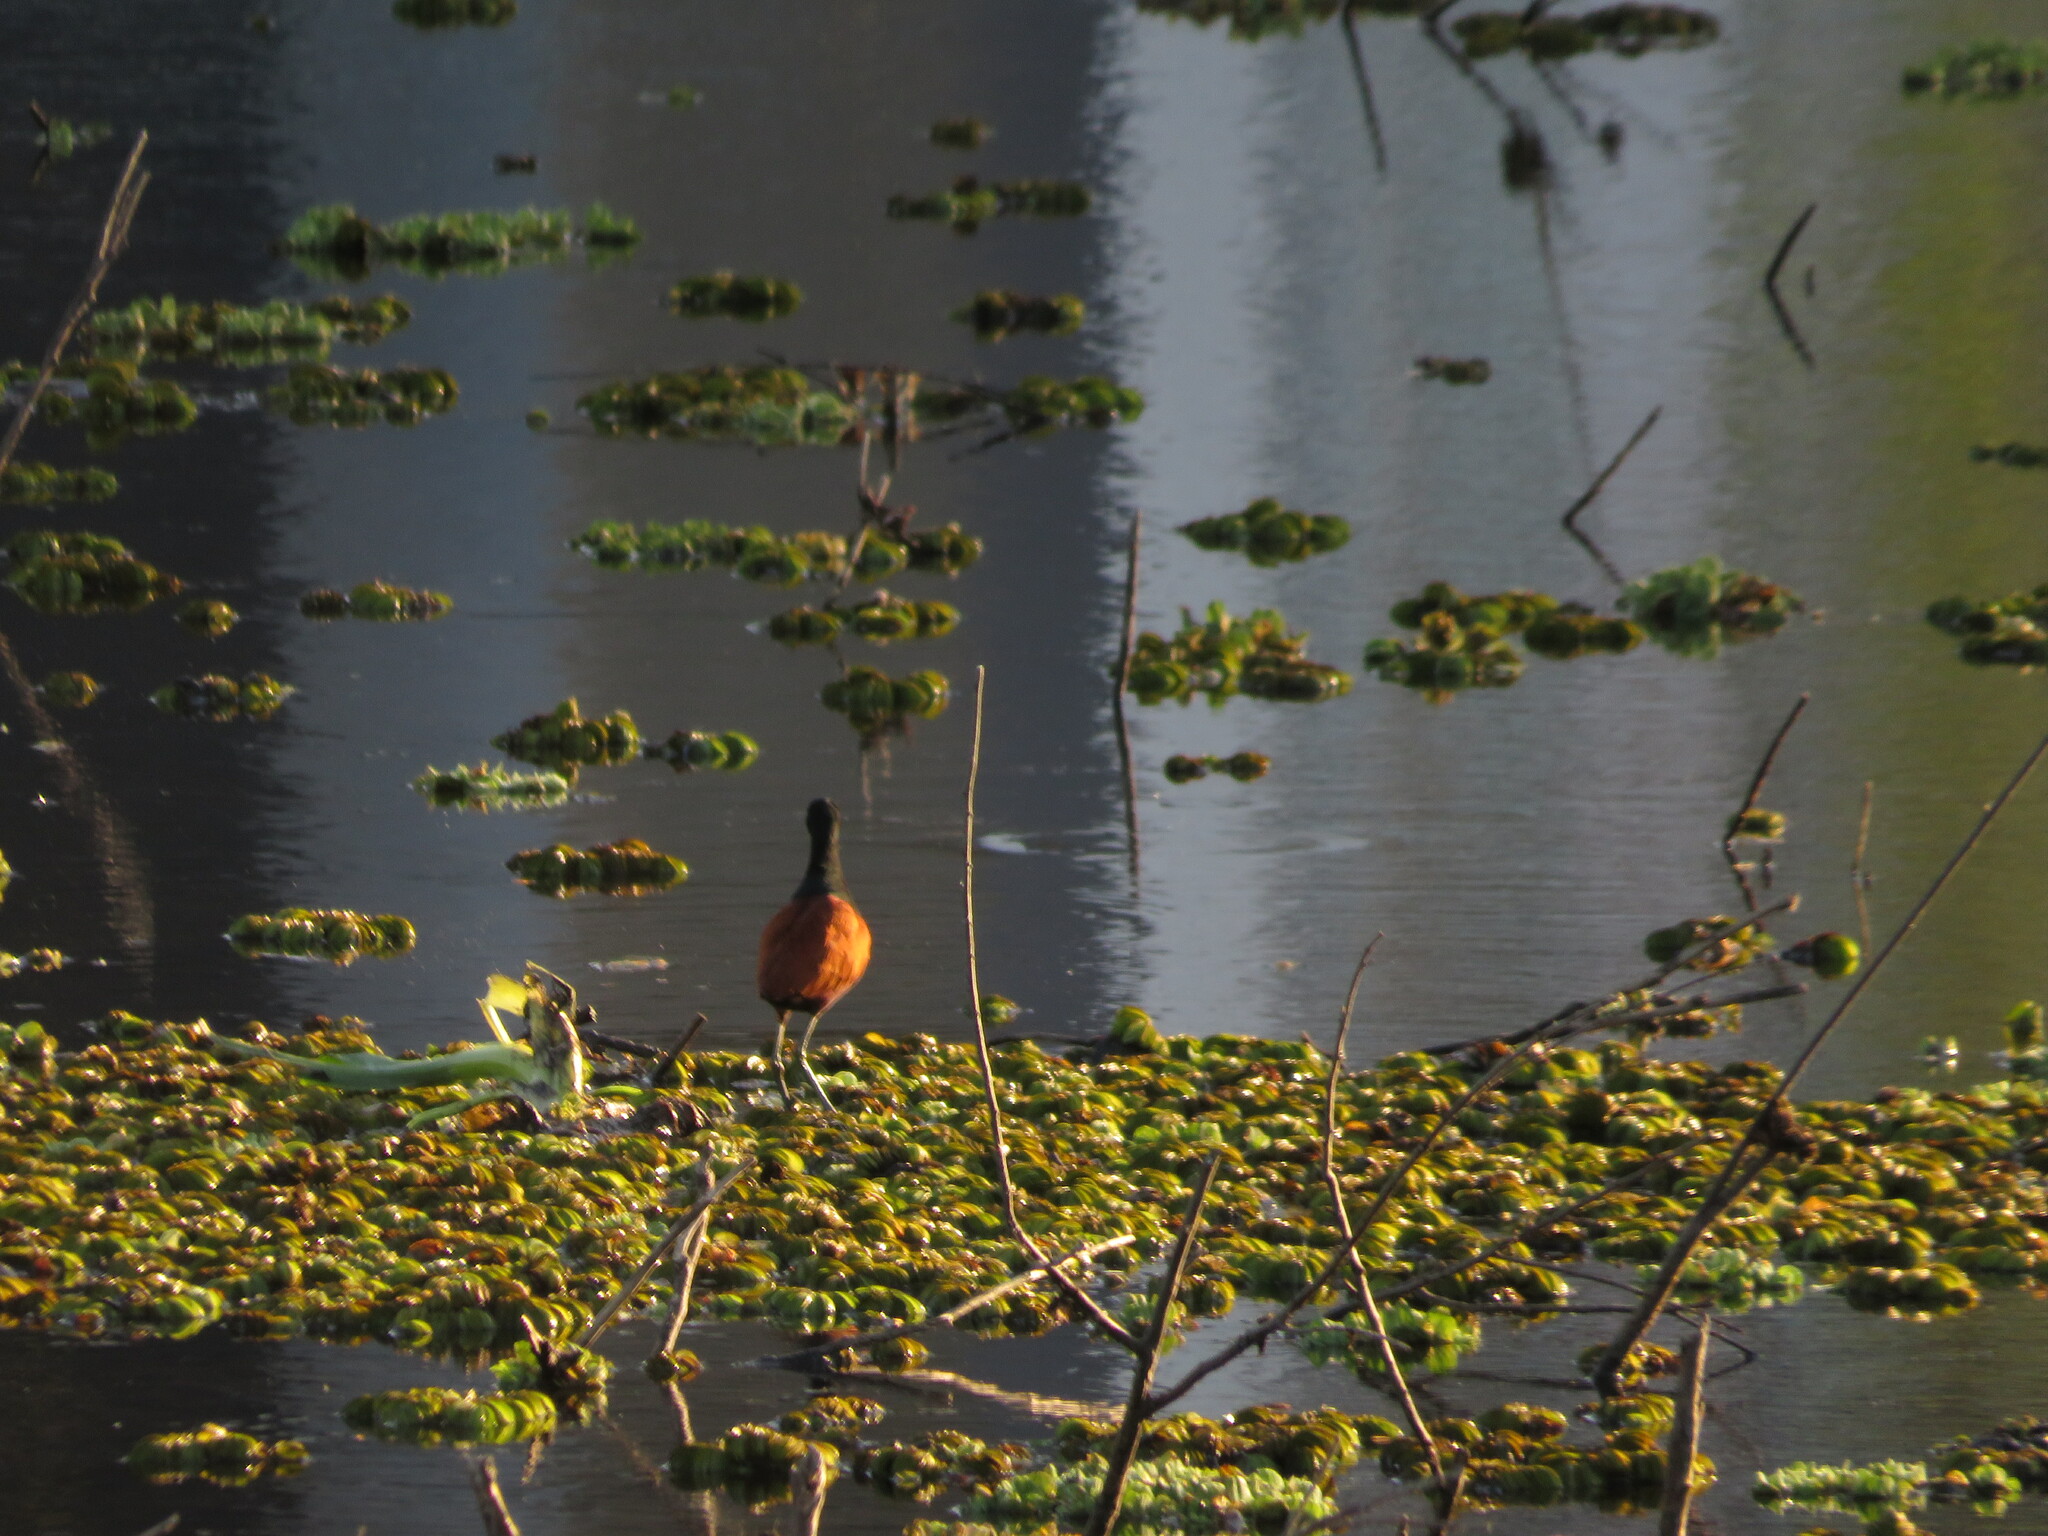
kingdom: Animalia
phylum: Chordata
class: Aves
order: Charadriiformes
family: Jacanidae
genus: Jacana
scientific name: Jacana jacana
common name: Wattled jacana
